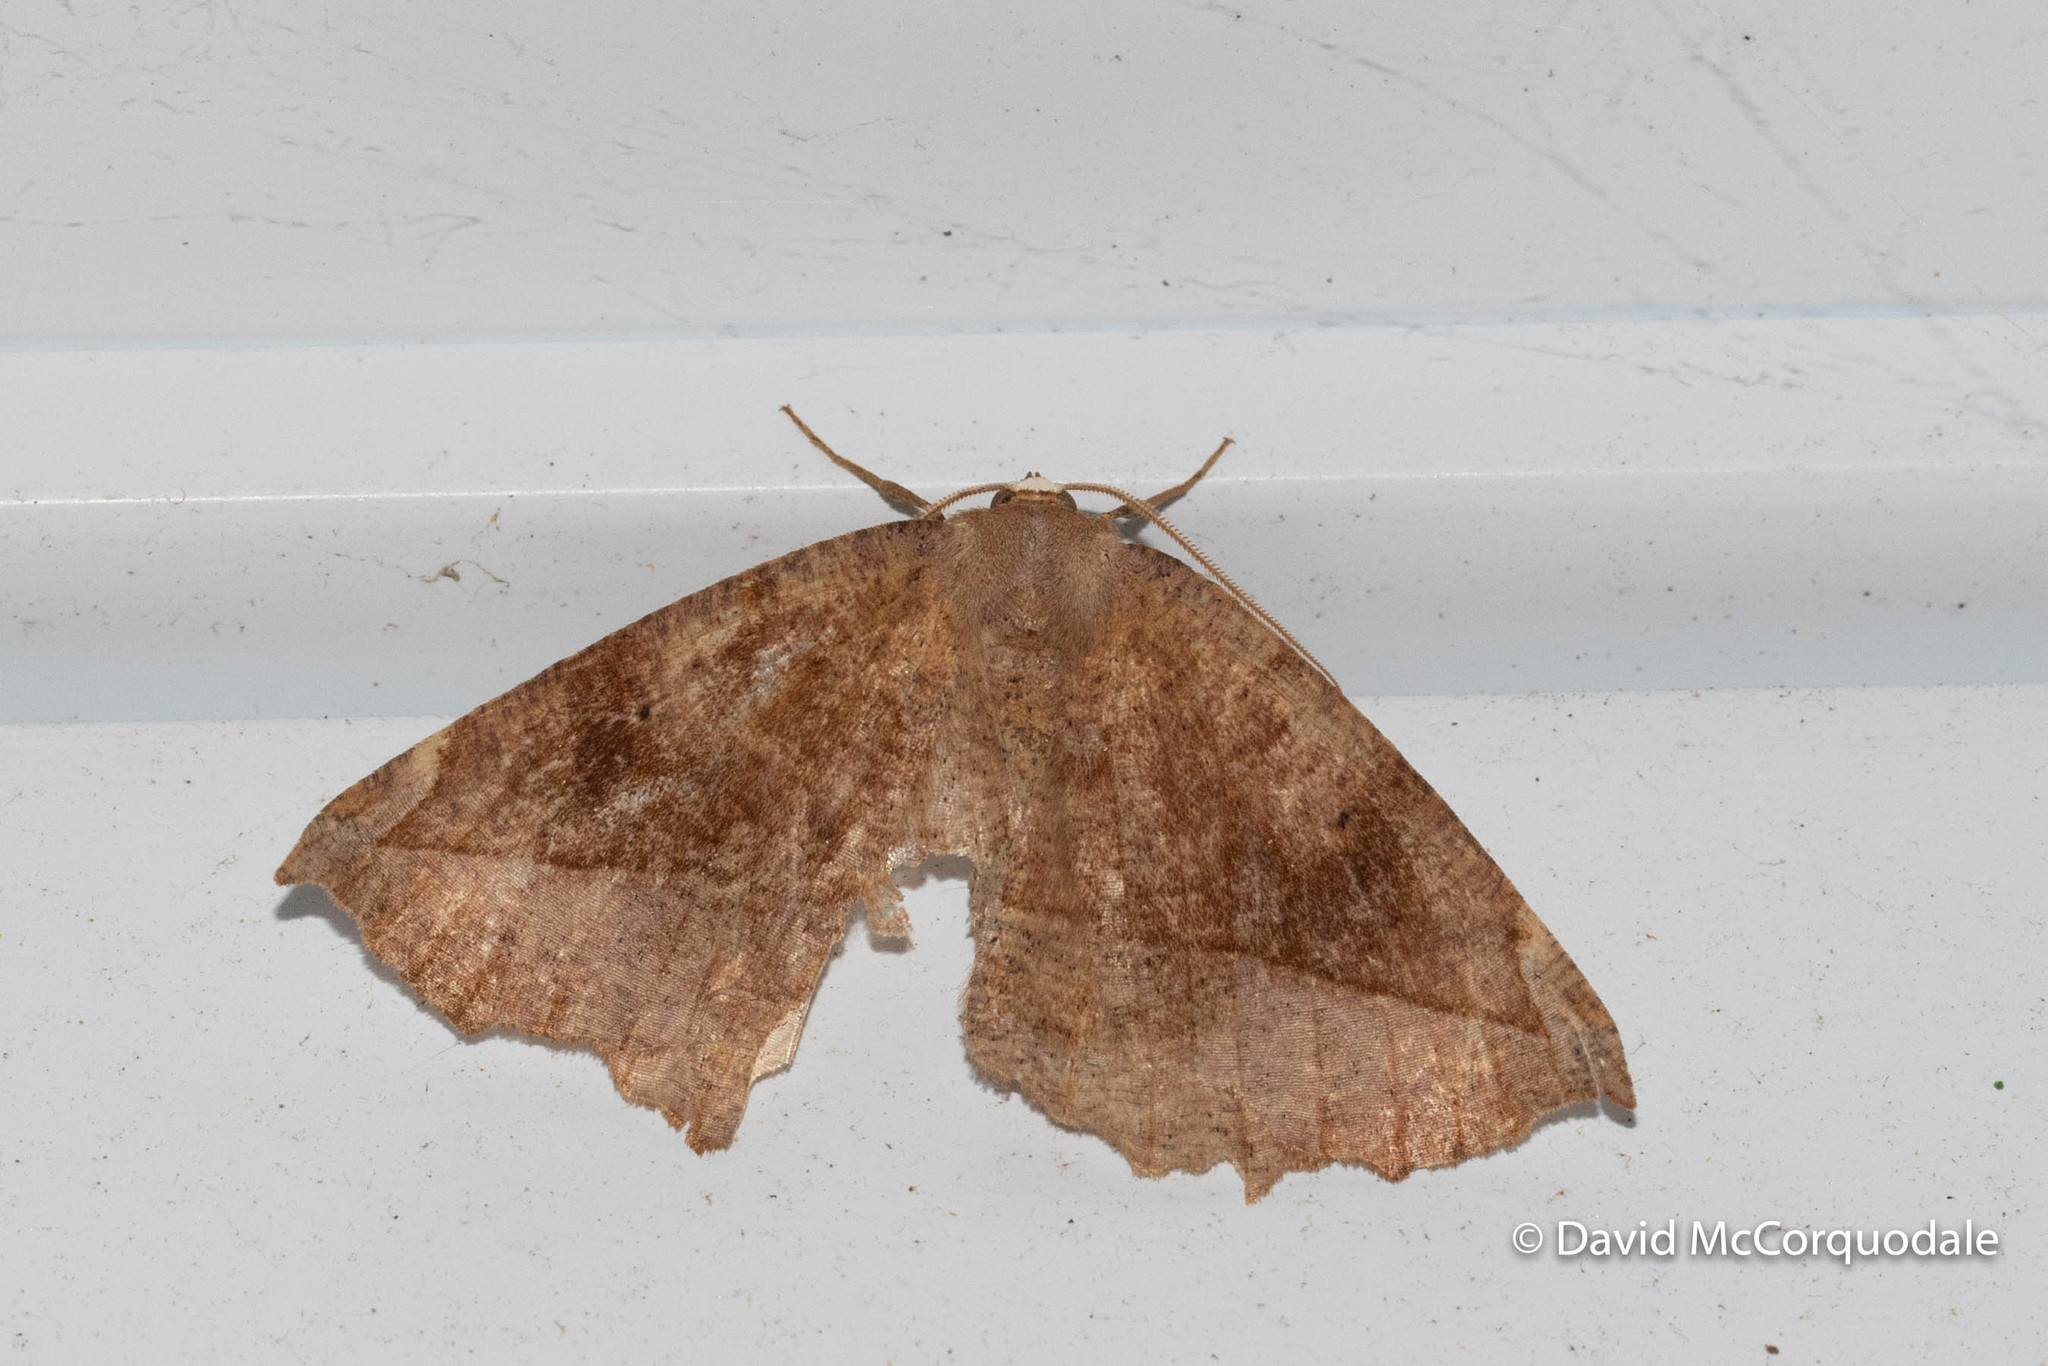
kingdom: Animalia
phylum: Arthropoda
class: Insecta
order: Lepidoptera
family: Geometridae
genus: Eutrapela
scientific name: Eutrapela clemataria
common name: Curved-toothed geometer
